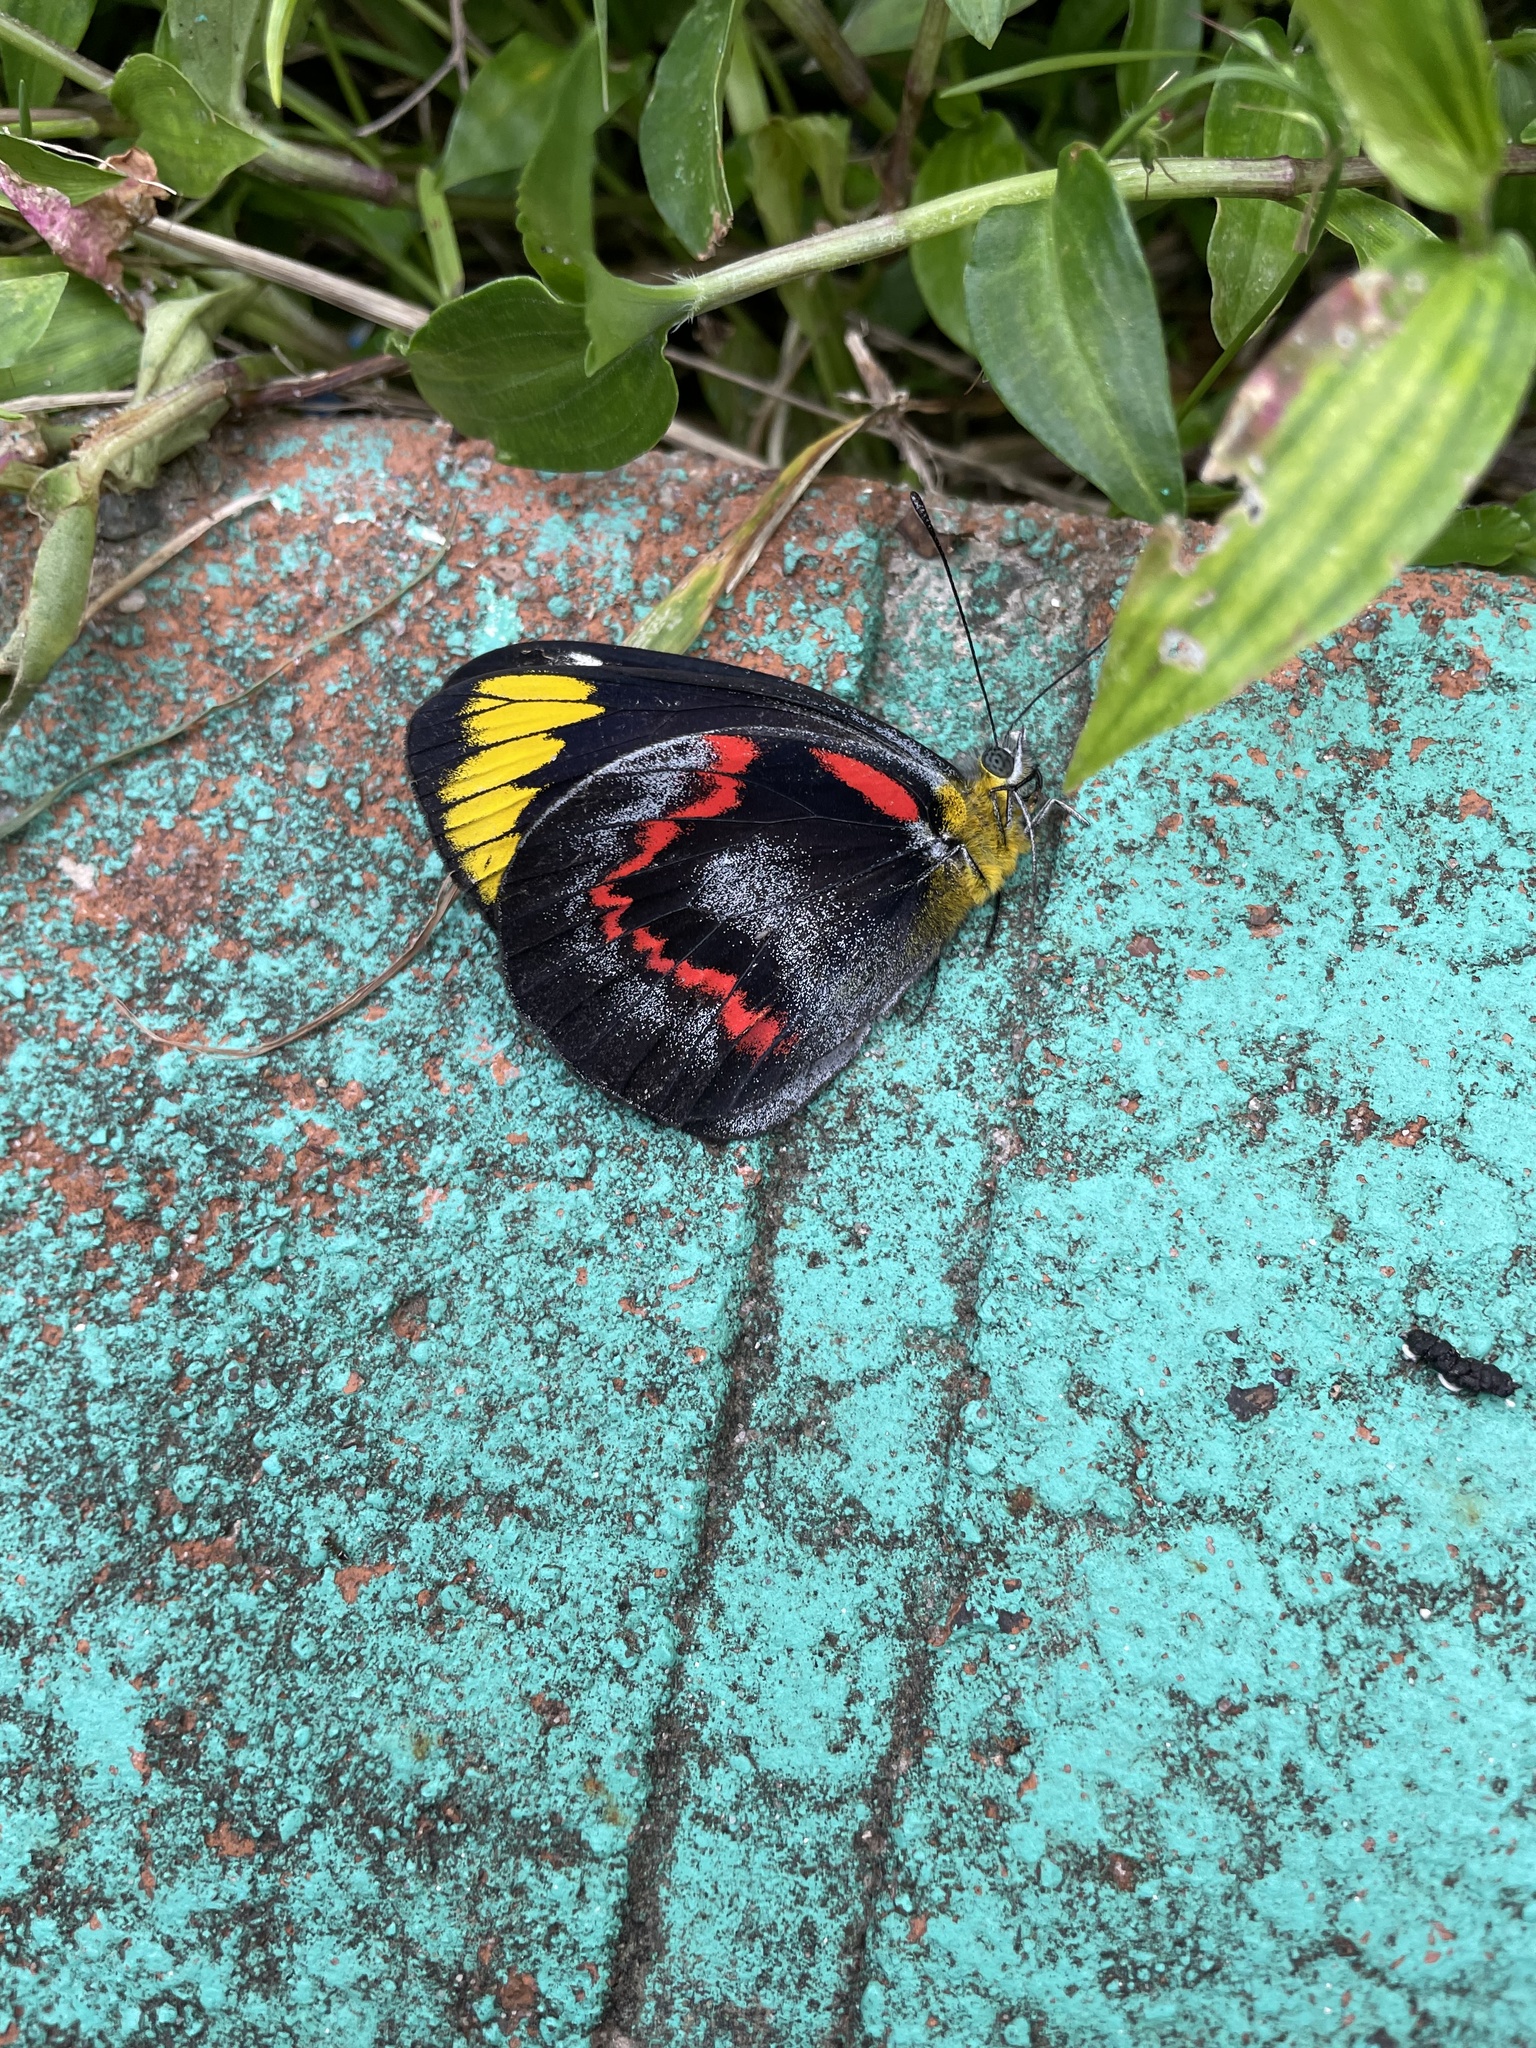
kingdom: Animalia
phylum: Arthropoda
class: Insecta
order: Lepidoptera
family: Pieridae
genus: Delias
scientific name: Delias nigrina
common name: Black jezebel
